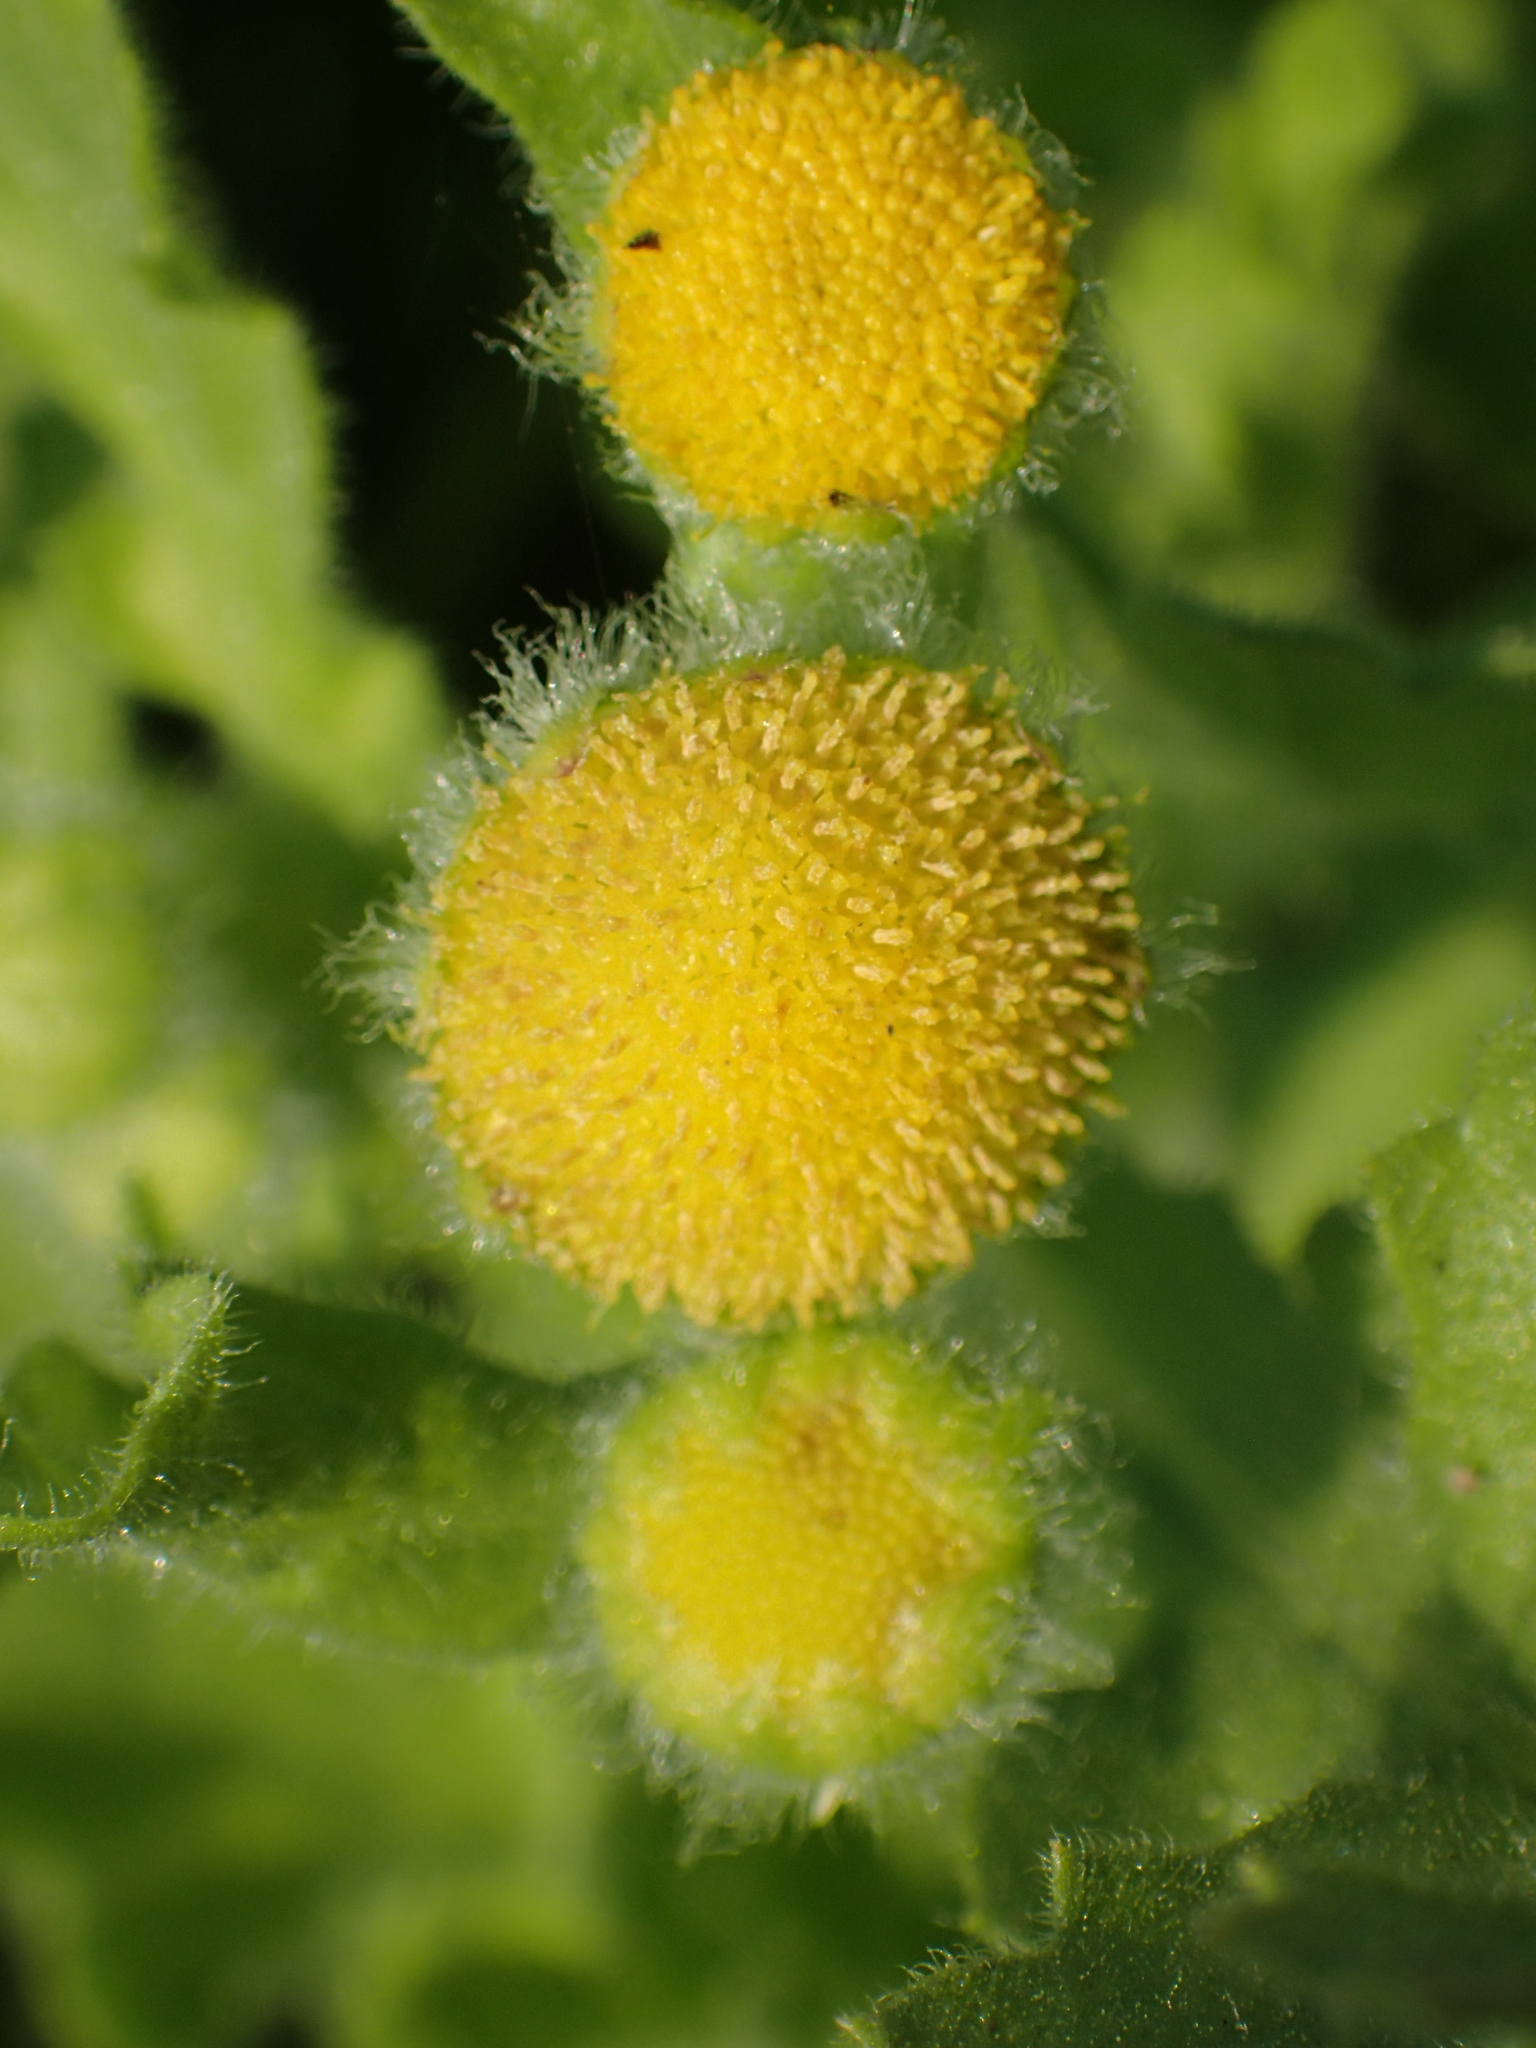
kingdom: Plantae
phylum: Tracheophyta
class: Magnoliopsida
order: Asterales
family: Asteraceae
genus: Grangea
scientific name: Grangea maderaspatana
